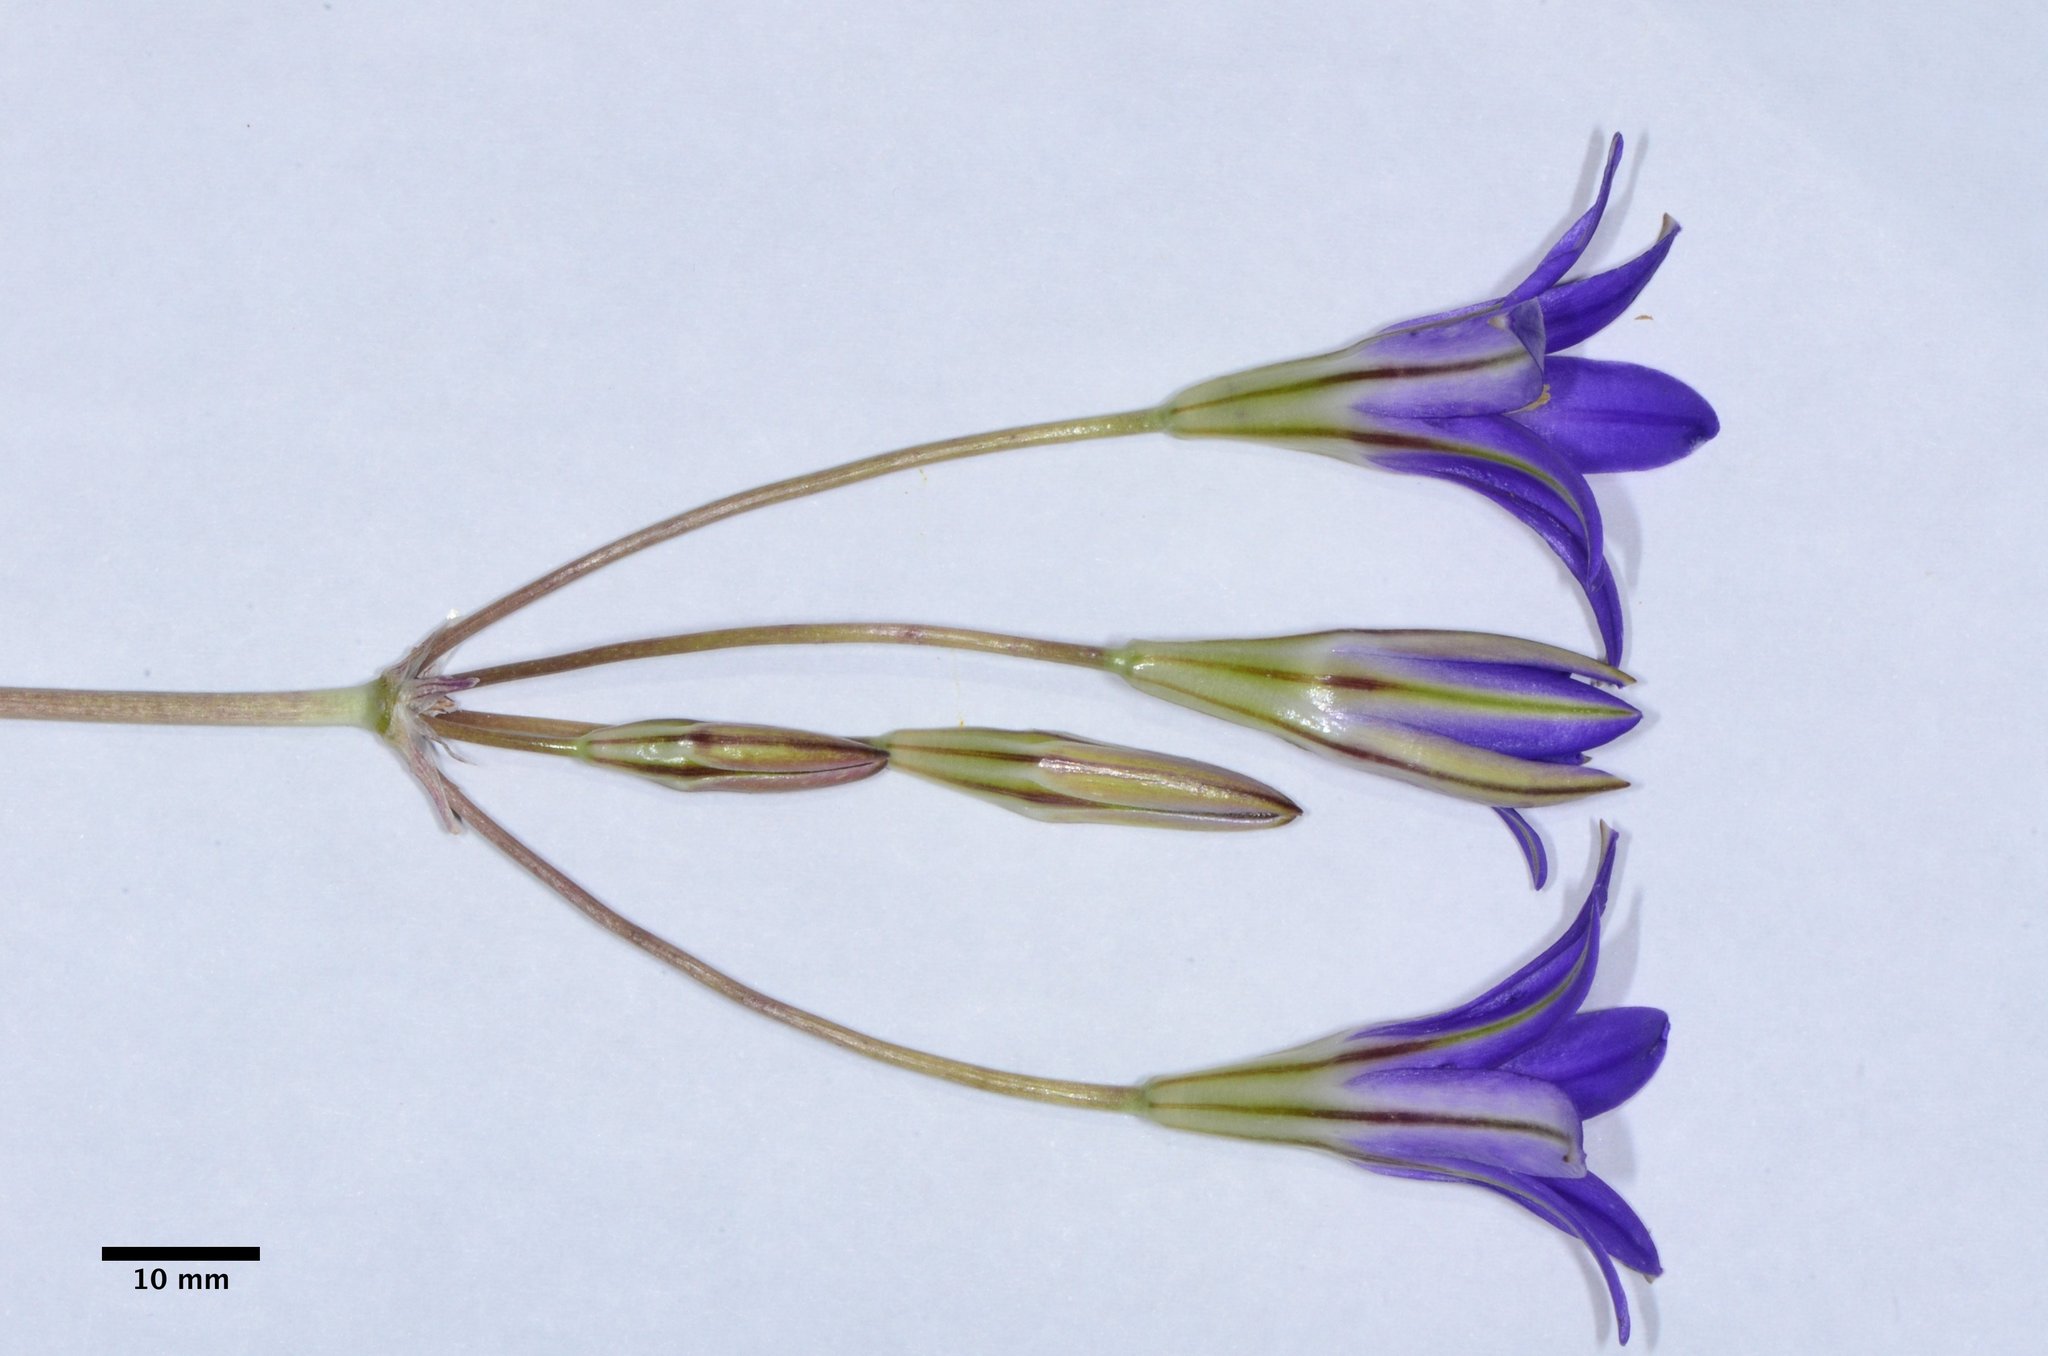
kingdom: Plantae
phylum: Tracheophyta
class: Liliopsida
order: Asparagales
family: Asparagaceae
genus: Brodiaea
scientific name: Brodiaea elegans
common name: Elegant cluster-lily
